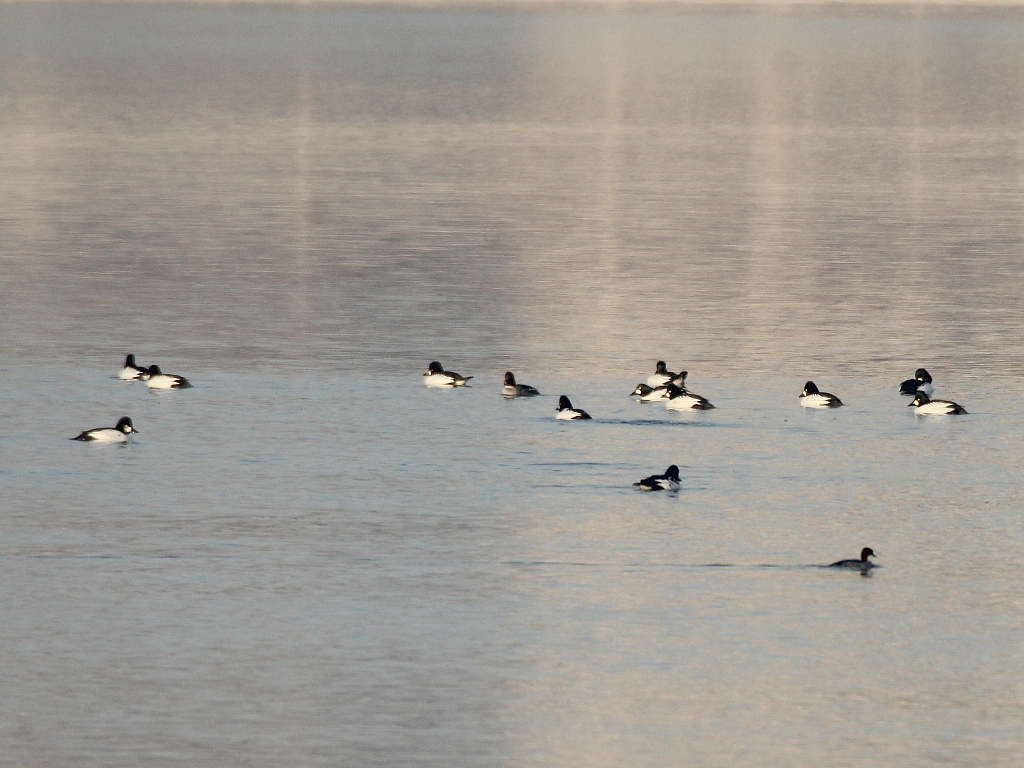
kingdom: Animalia
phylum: Chordata
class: Aves
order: Anseriformes
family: Anatidae
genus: Bucephala
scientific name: Bucephala clangula
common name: Common goldeneye
